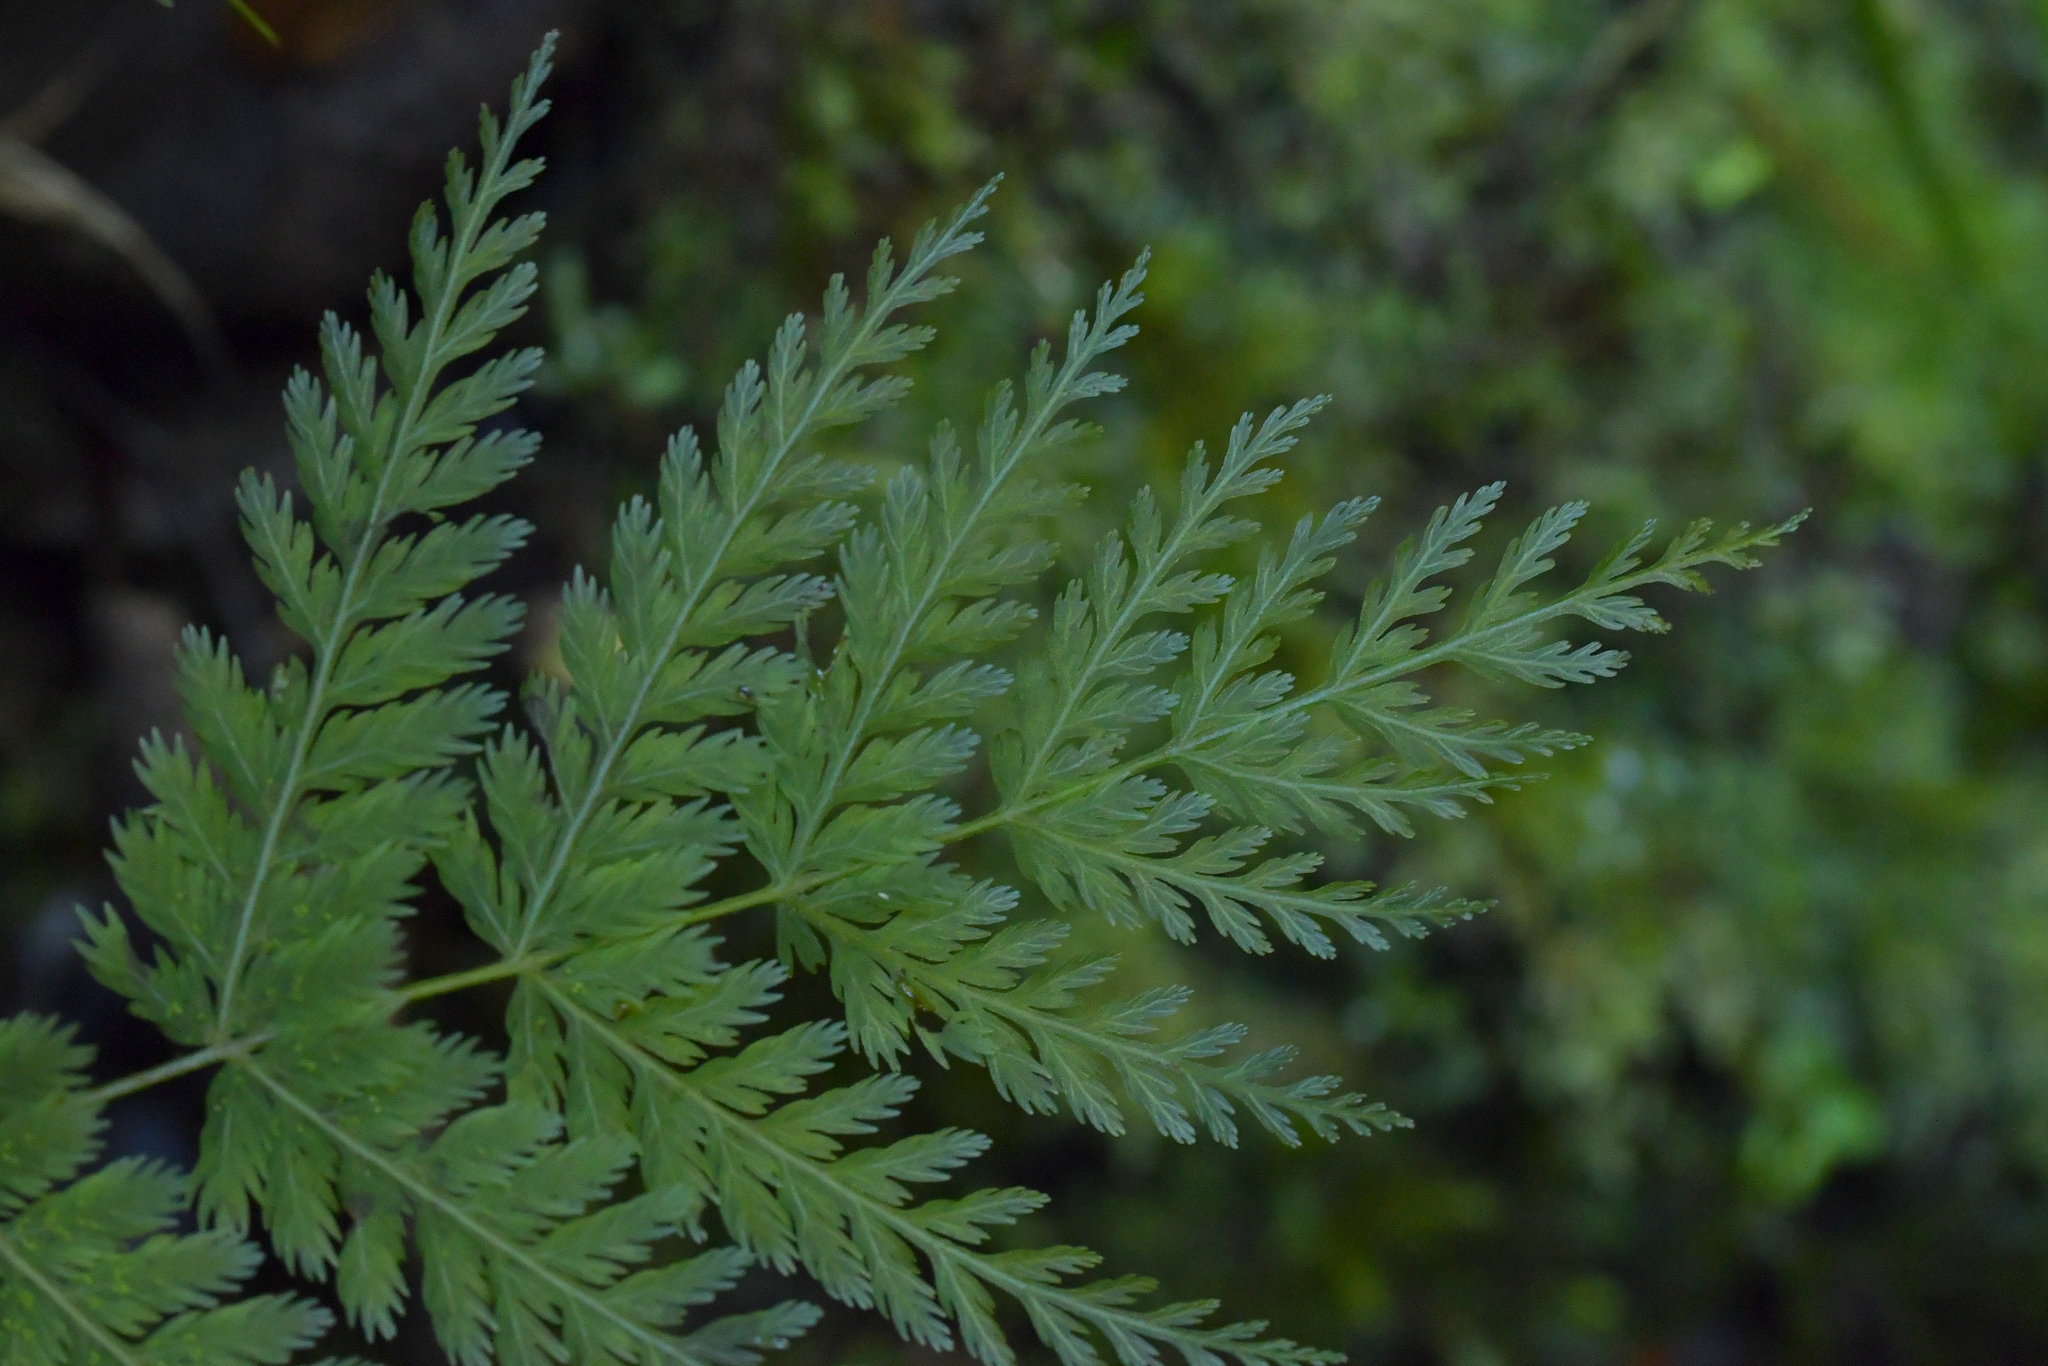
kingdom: Plantae
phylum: Tracheophyta
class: Polypodiopsida
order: Osmundales
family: Osmundaceae
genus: Leptopteris
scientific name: Leptopteris hymenophylloides
